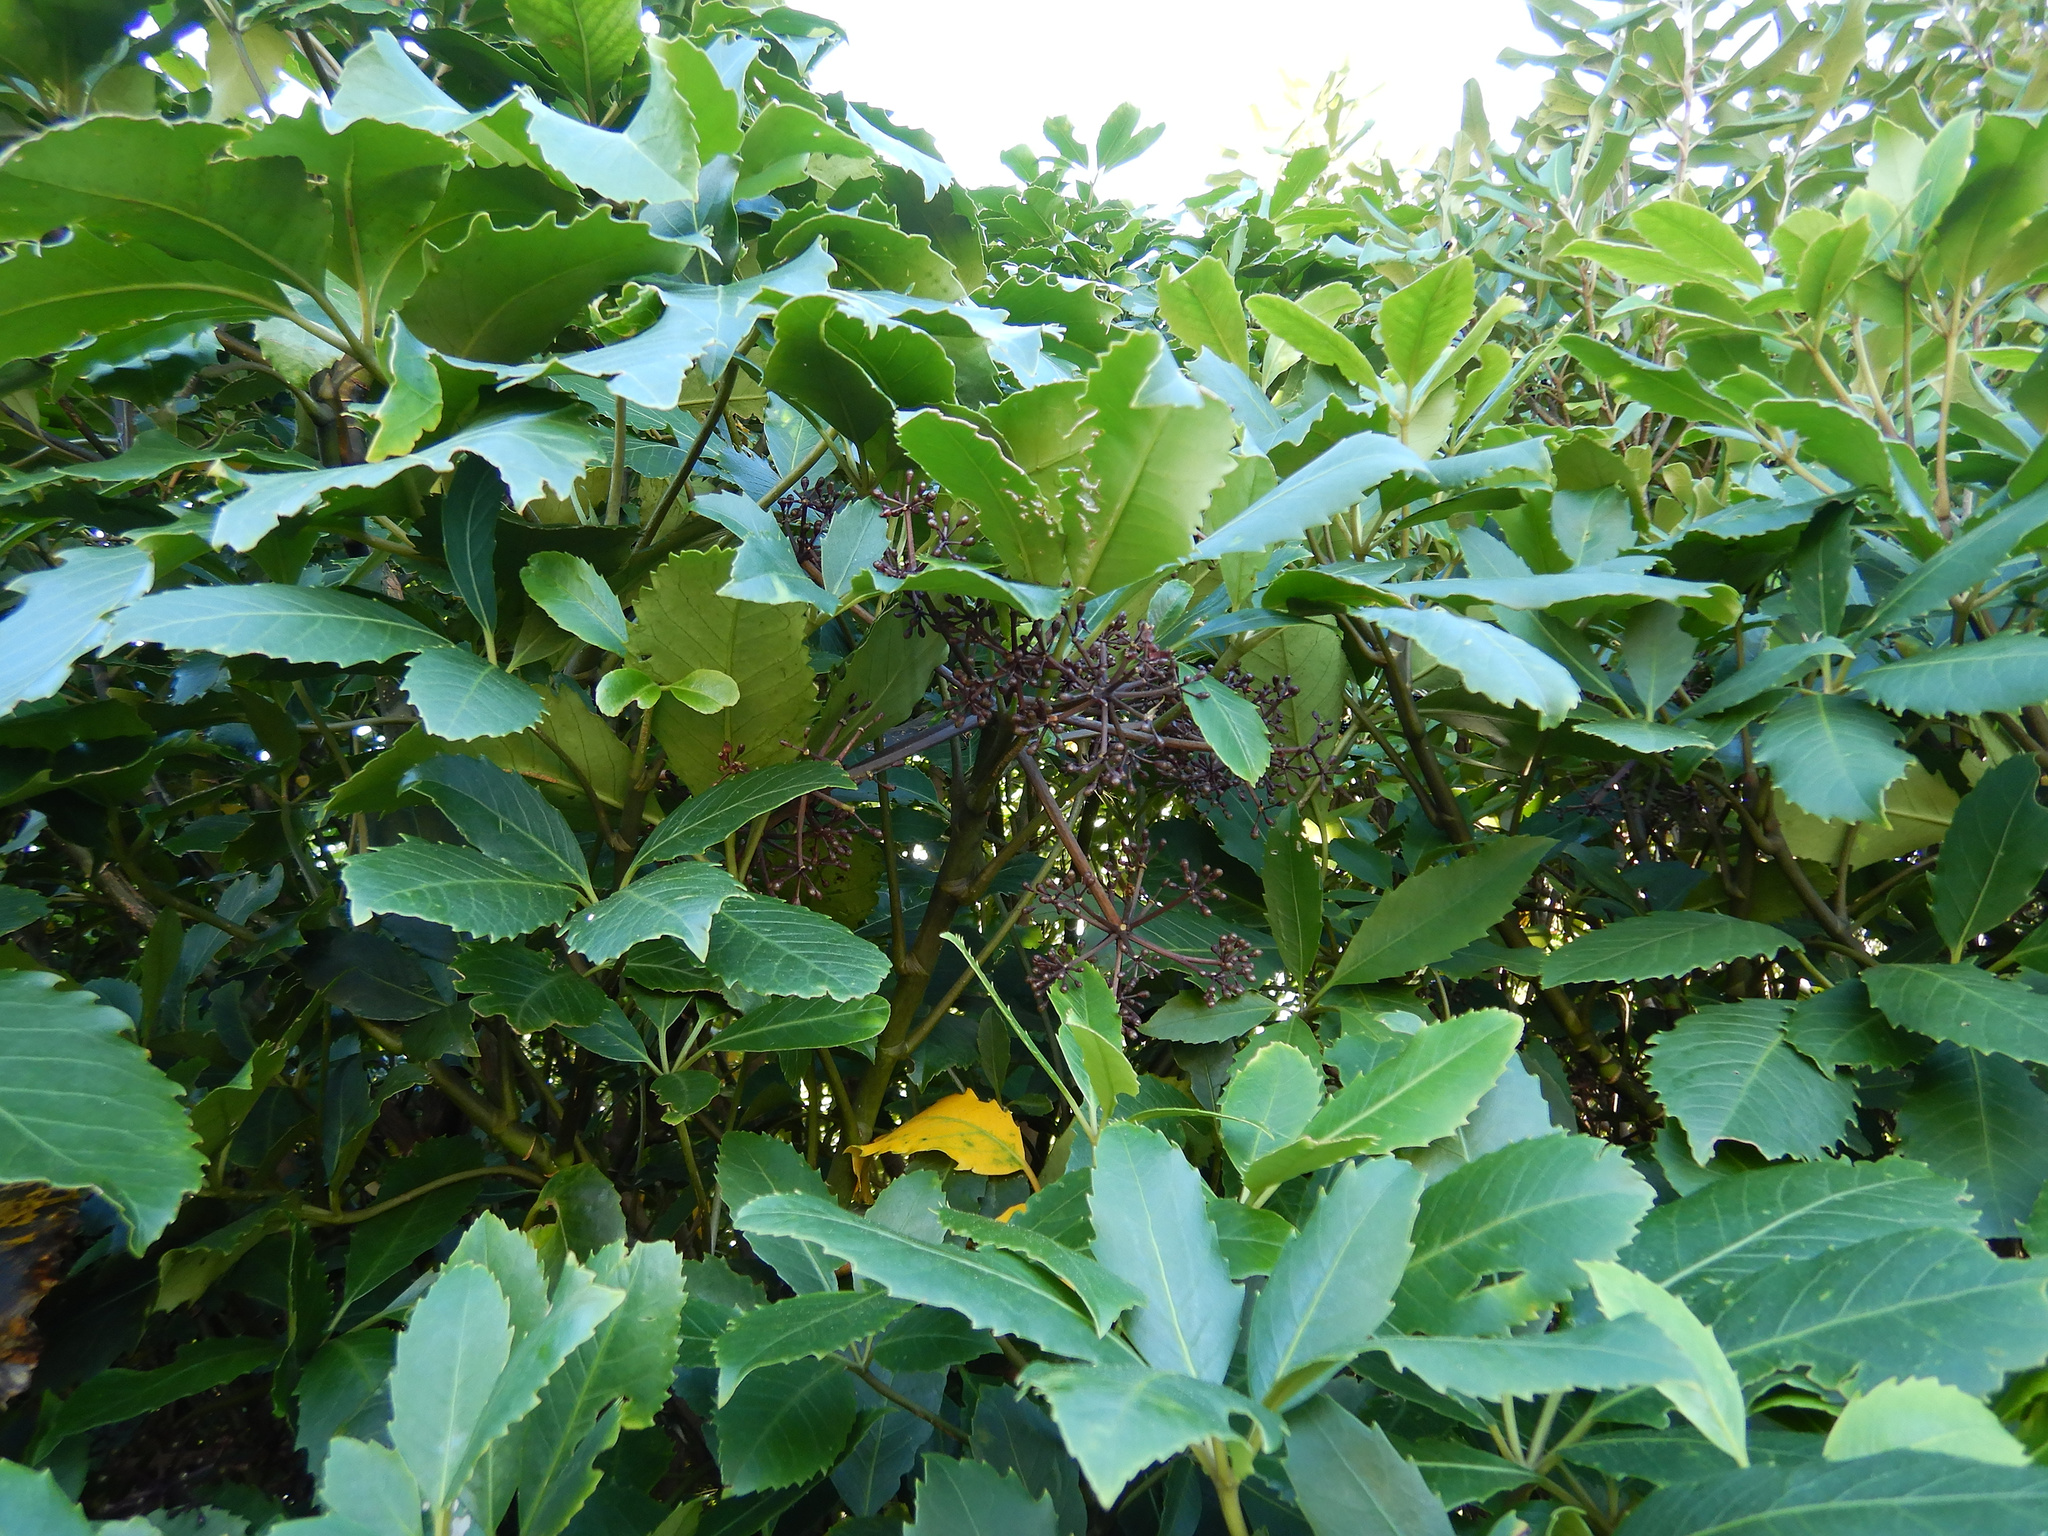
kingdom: Plantae
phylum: Tracheophyta
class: Magnoliopsida
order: Apiales
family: Araliaceae
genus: Neopanax
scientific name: Neopanax arboreus
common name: Five-fingers
